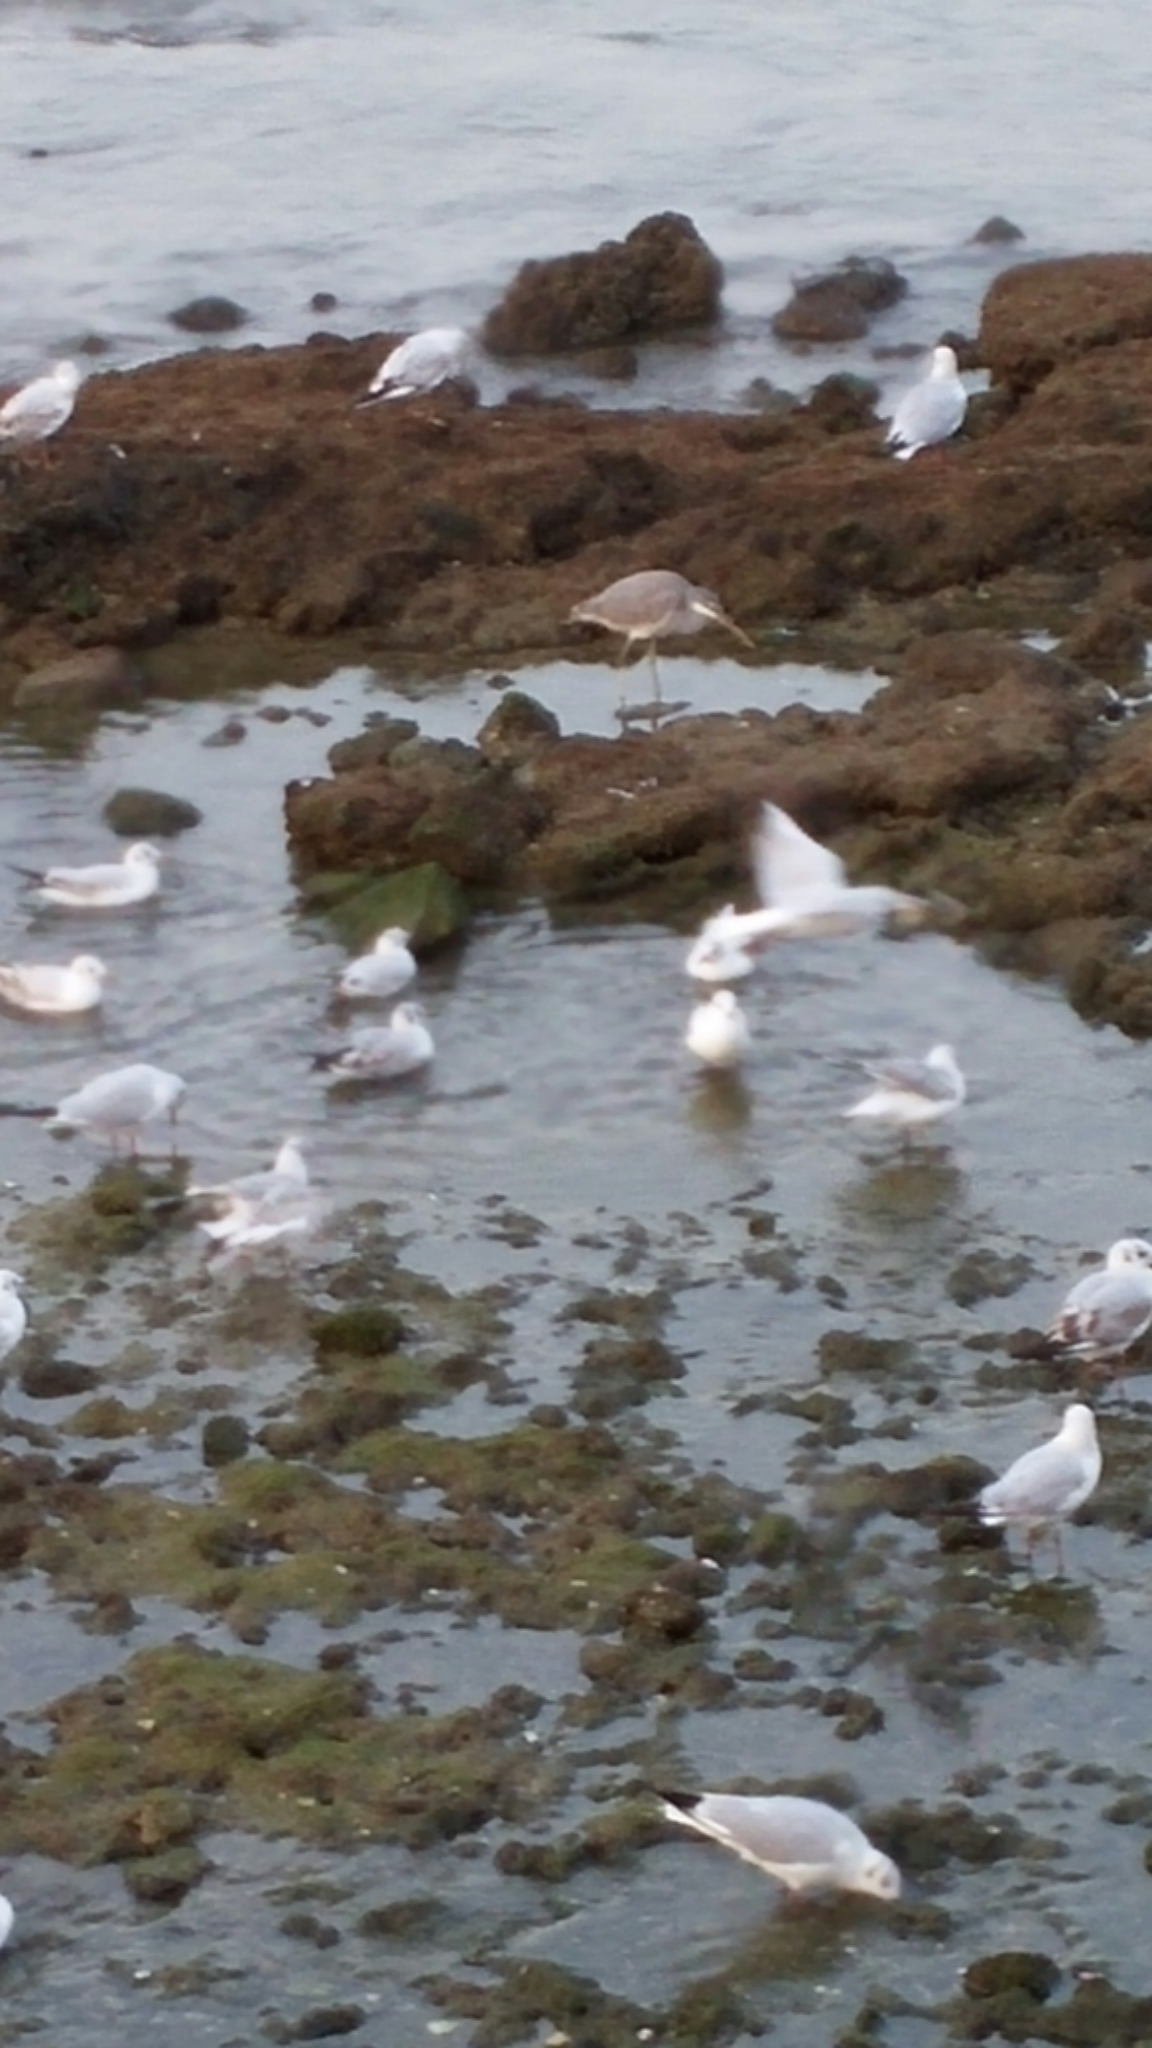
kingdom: Animalia
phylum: Chordata
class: Aves
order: Pelecaniformes
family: Ardeidae
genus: Egretta
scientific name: Egretta gularis
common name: Western reef-heron
